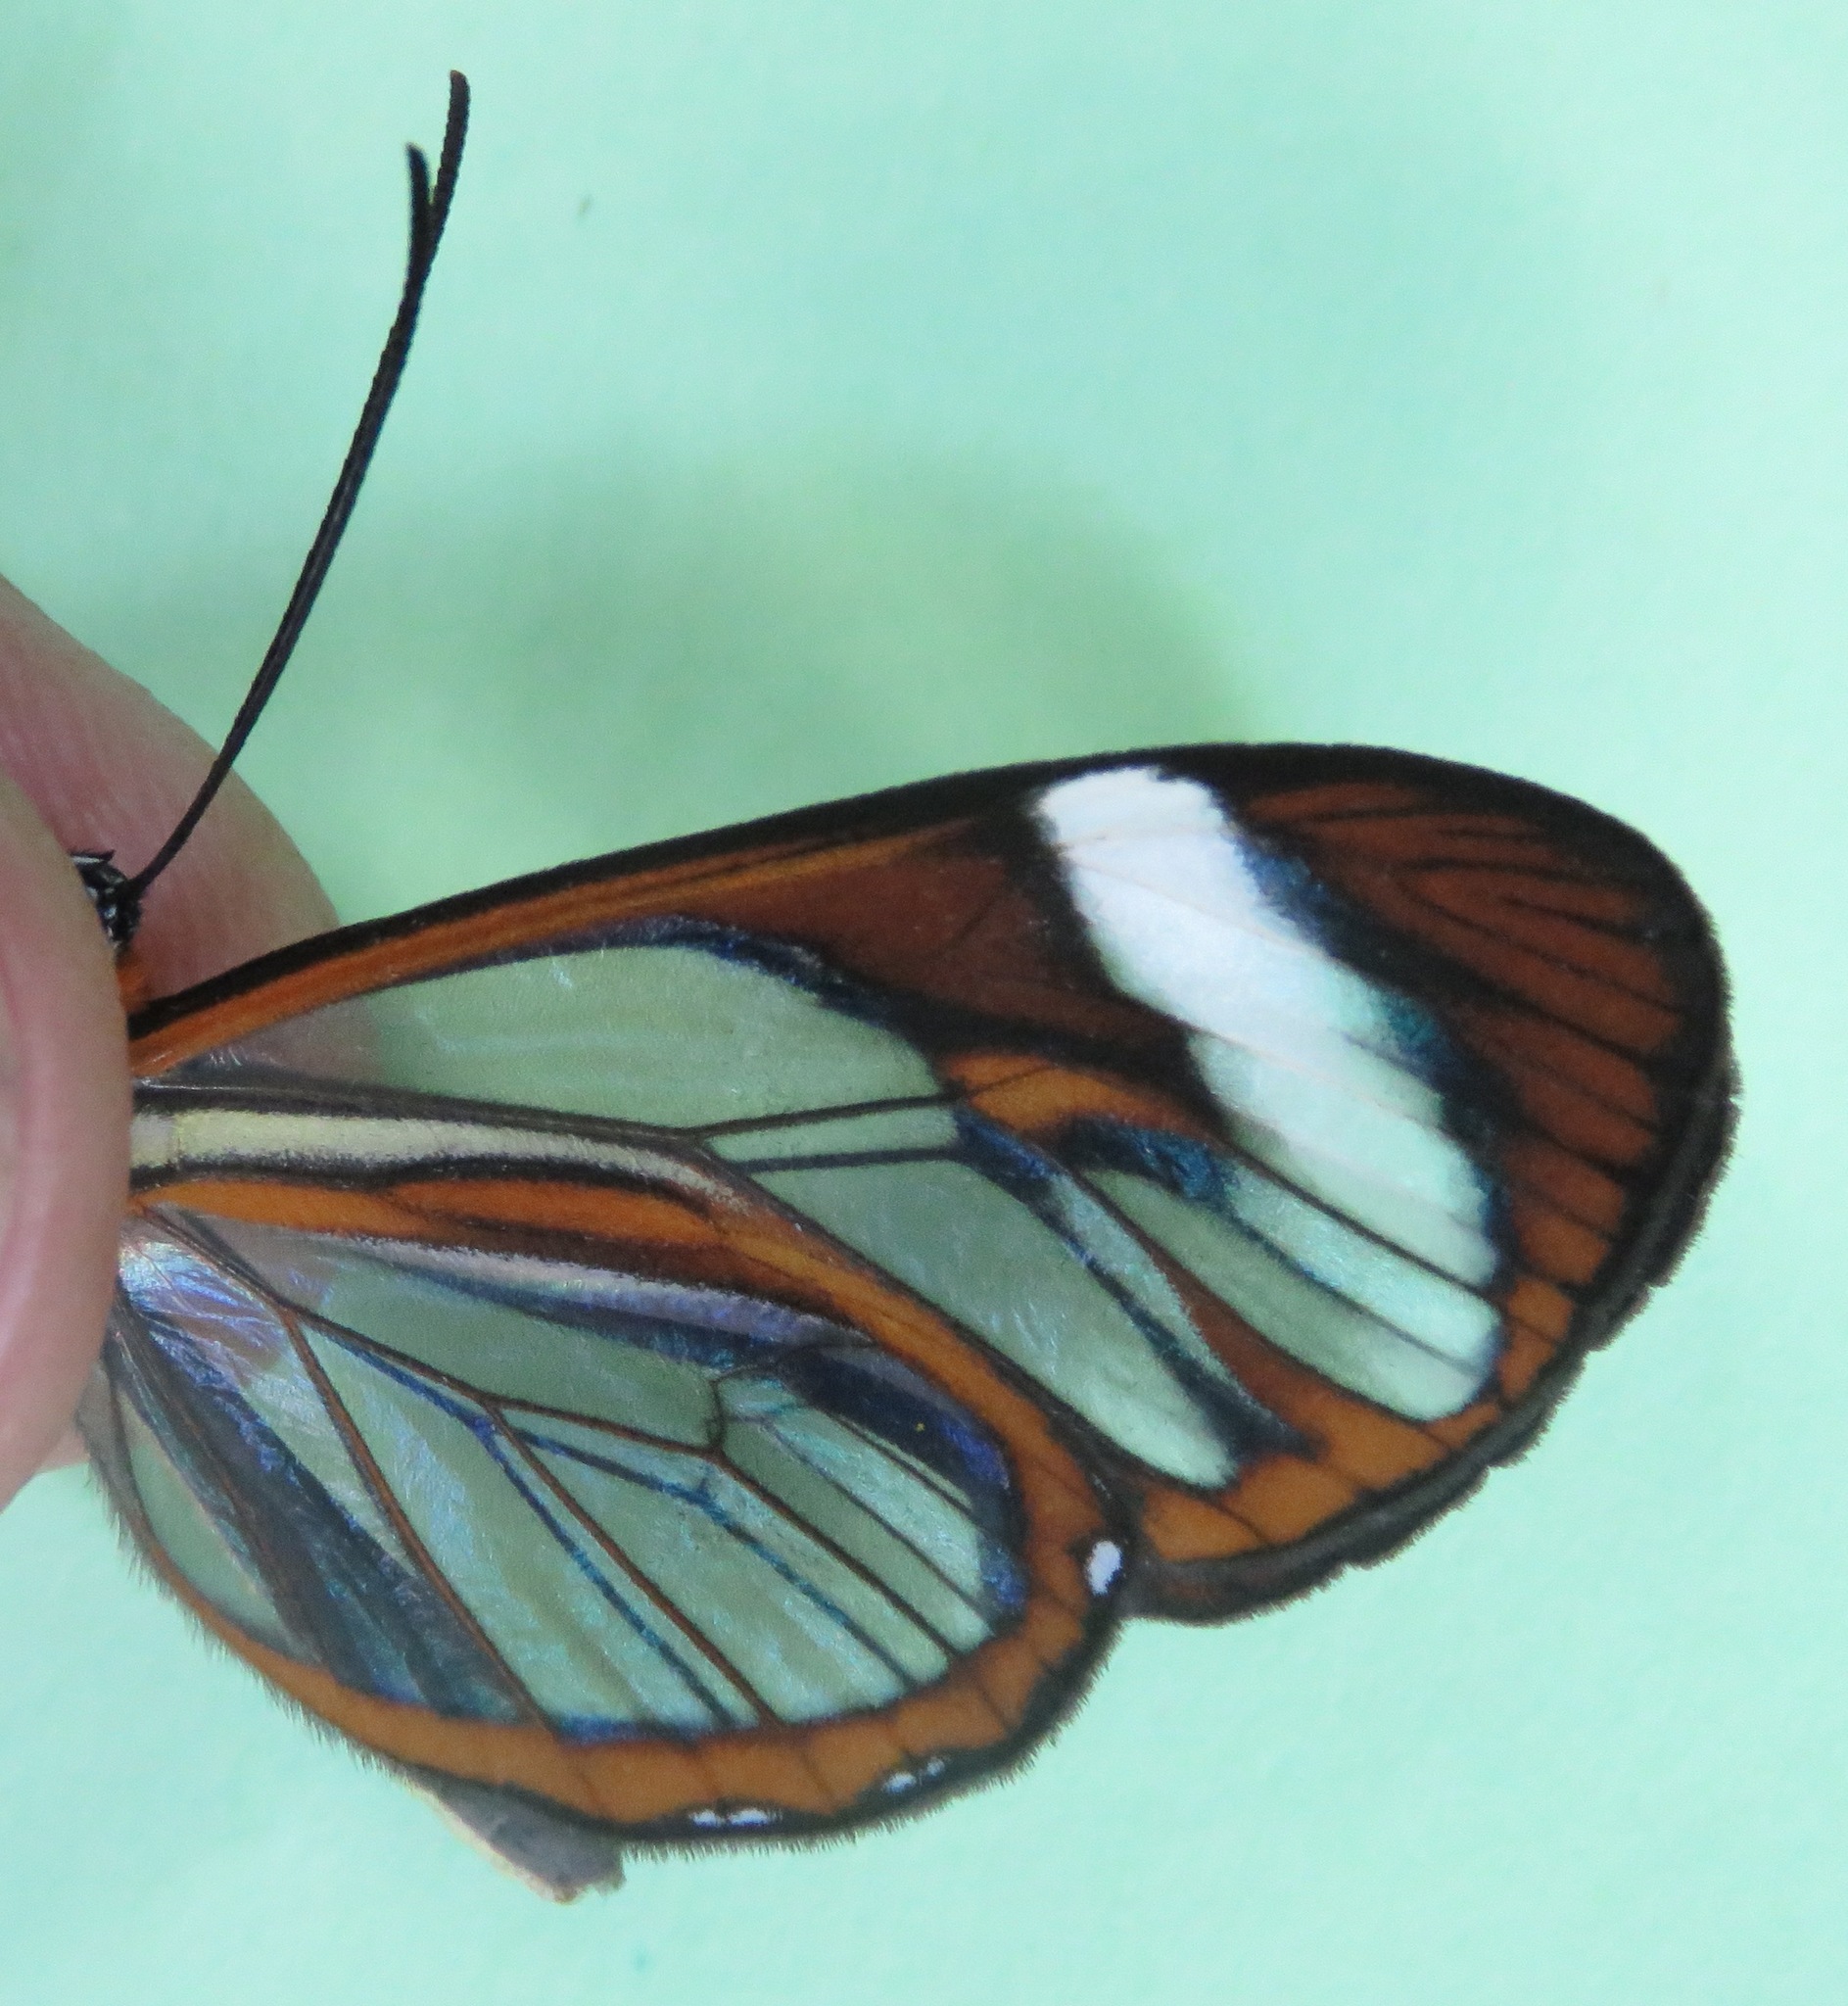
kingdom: Animalia
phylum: Arthropoda
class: Insecta
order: Lepidoptera
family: Nymphalidae
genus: Ithomia
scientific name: Ithomia patilla
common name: Patilla clearwing
